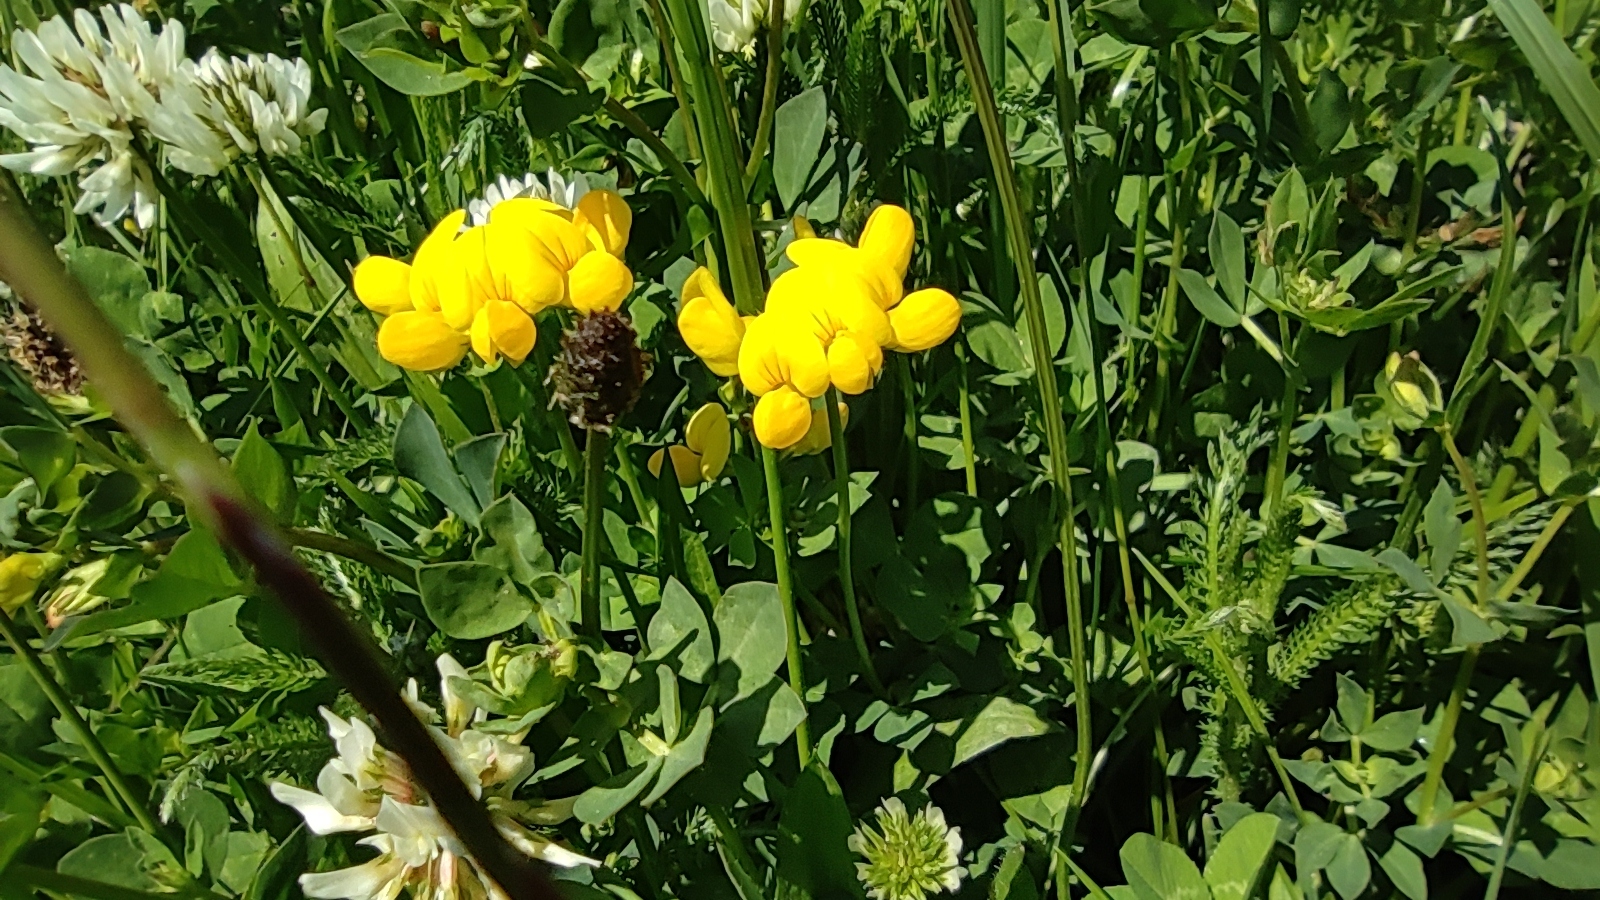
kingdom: Plantae
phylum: Tracheophyta
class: Magnoliopsida
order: Fabales
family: Fabaceae
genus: Lotus
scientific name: Lotus corniculatus
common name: Common bird's-foot-trefoil
